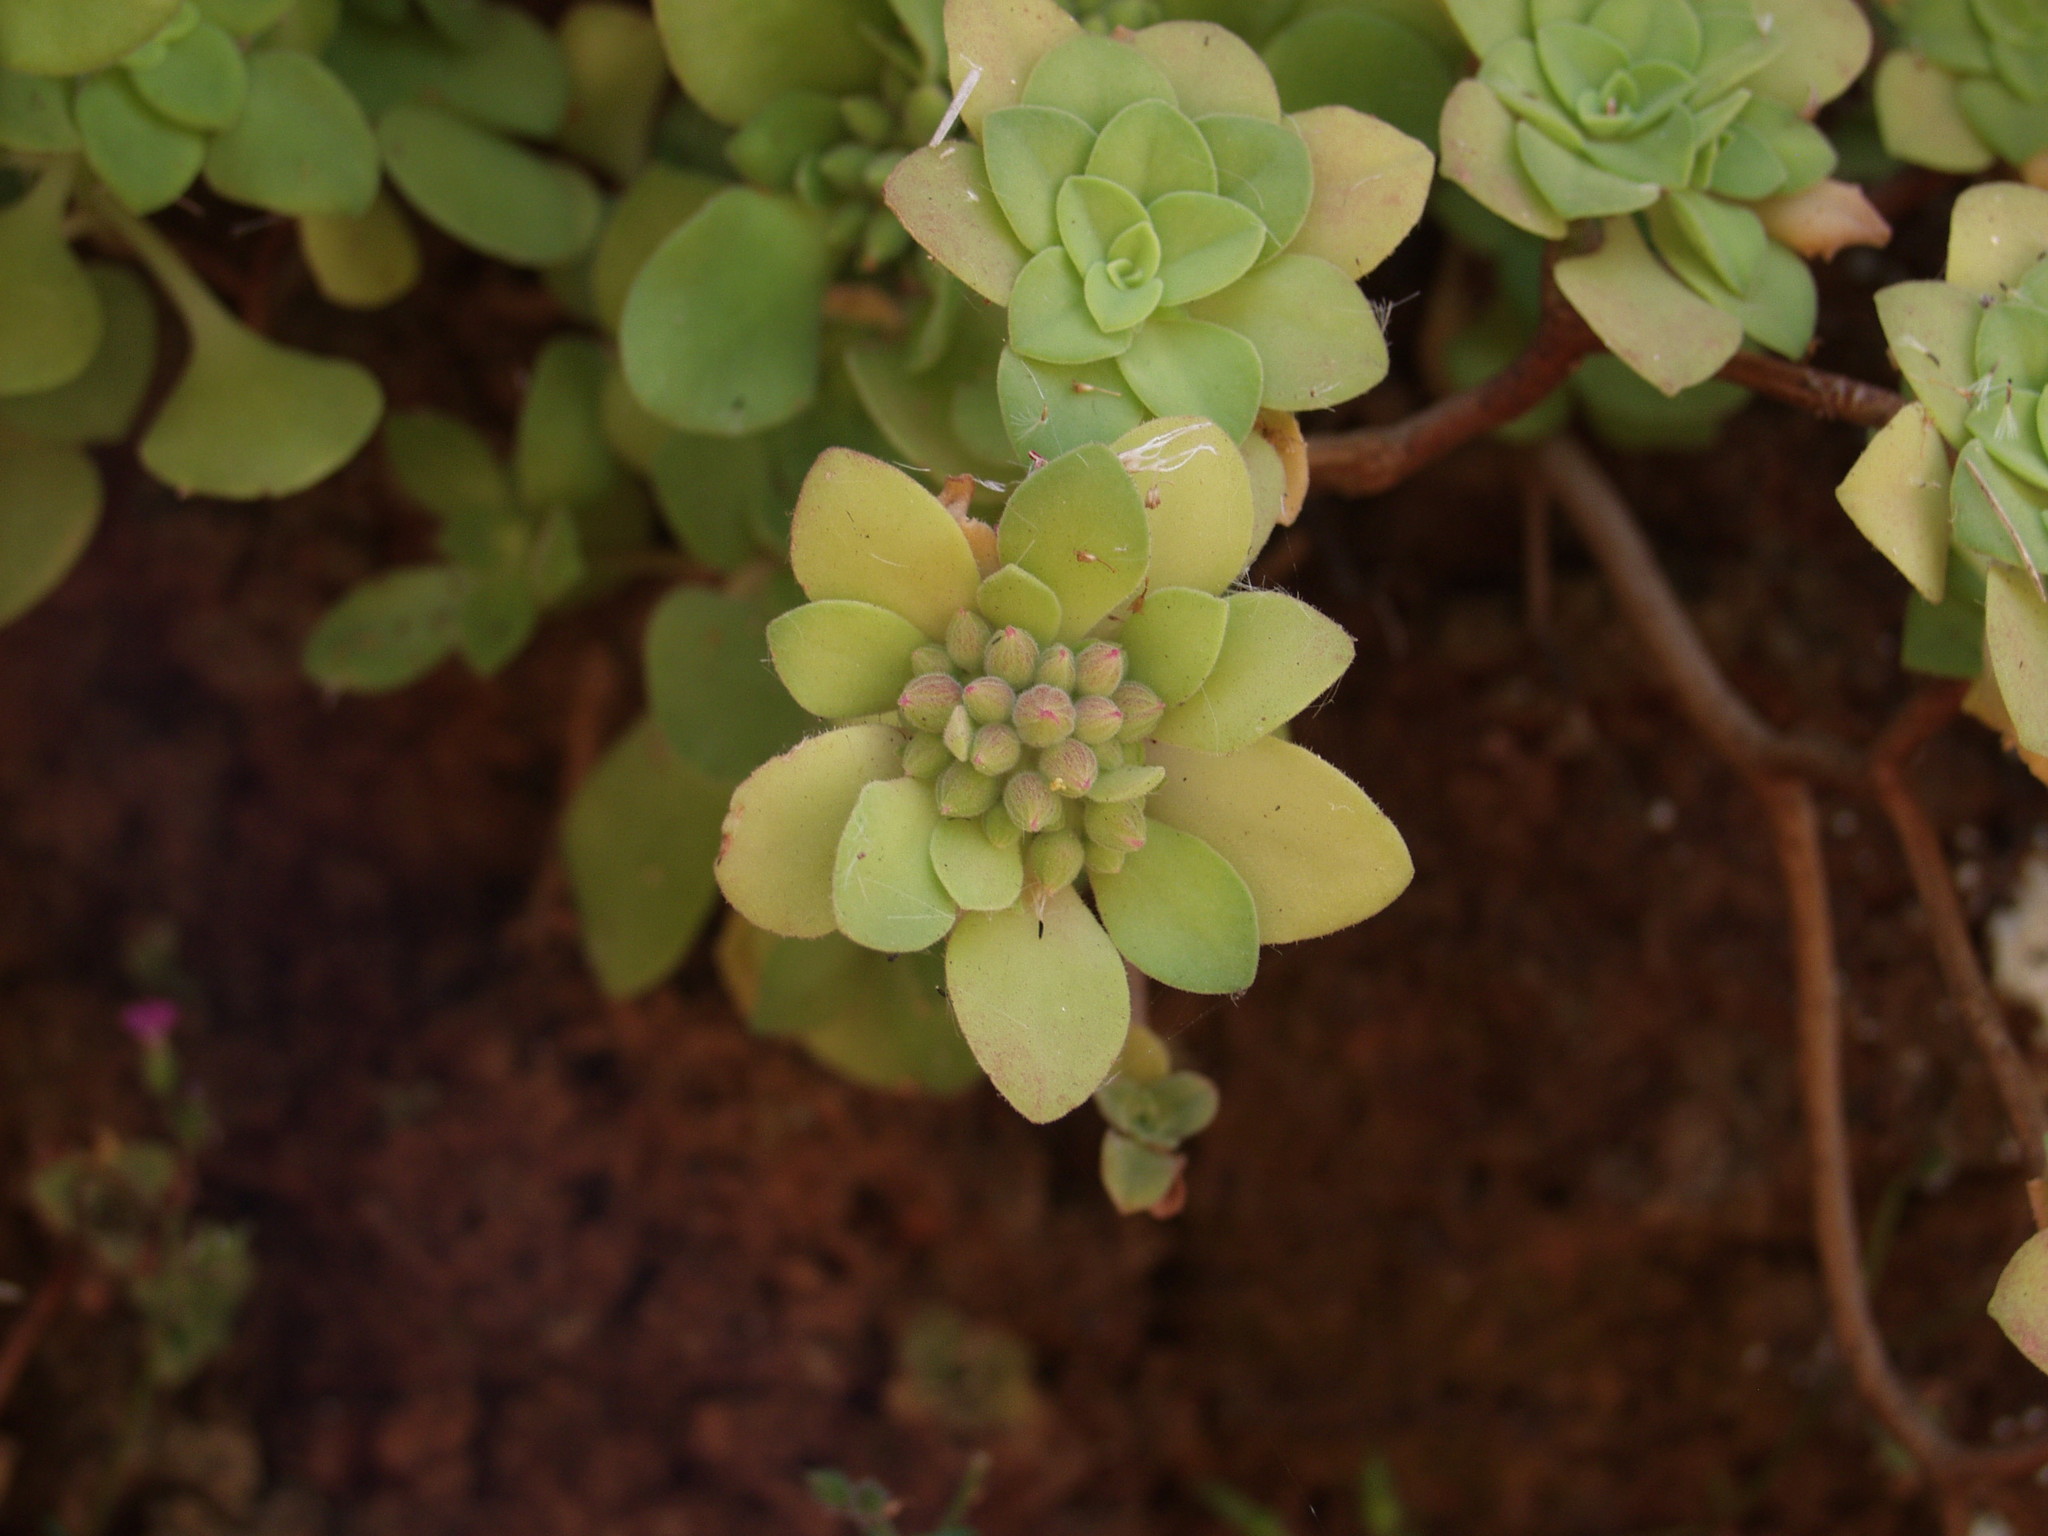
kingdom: Plantae
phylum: Tracheophyta
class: Magnoliopsida
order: Saxifragales
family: Crassulaceae
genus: Aeonium
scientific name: Aeonium goochiae
